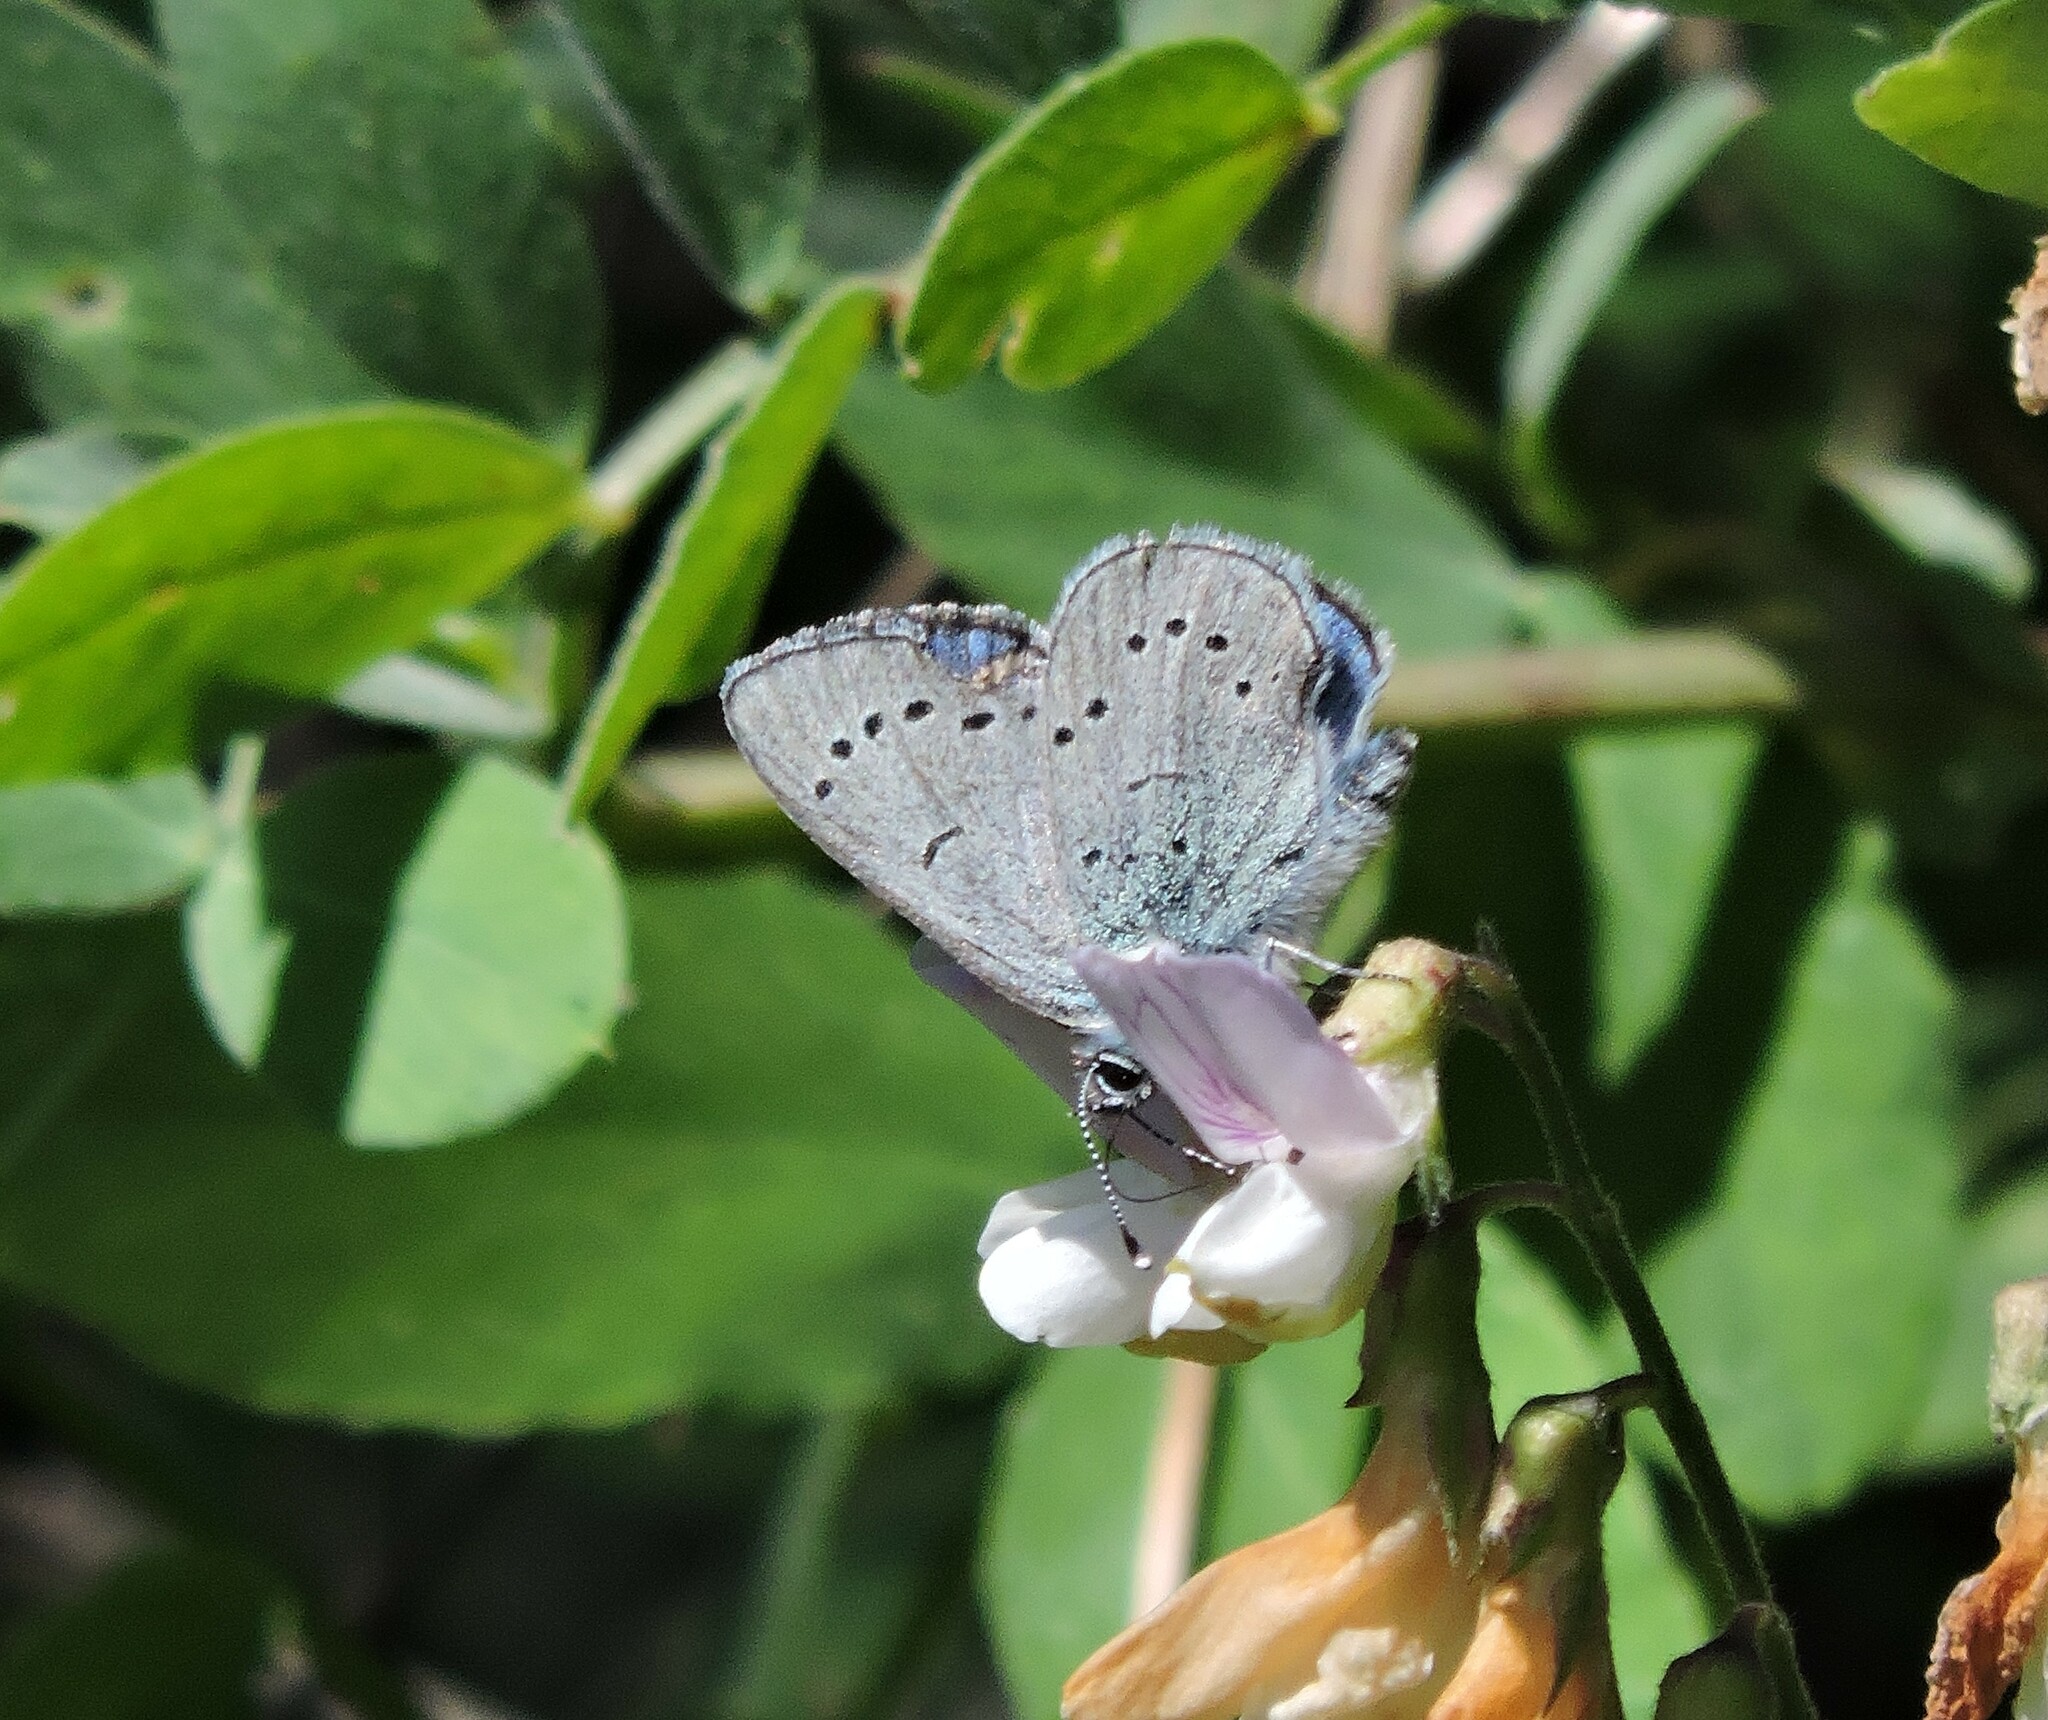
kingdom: Animalia
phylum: Arthropoda
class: Insecta
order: Lepidoptera
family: Lycaenidae
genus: Glaucopsyche
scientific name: Glaucopsyche lygdamus
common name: Silvery blue
